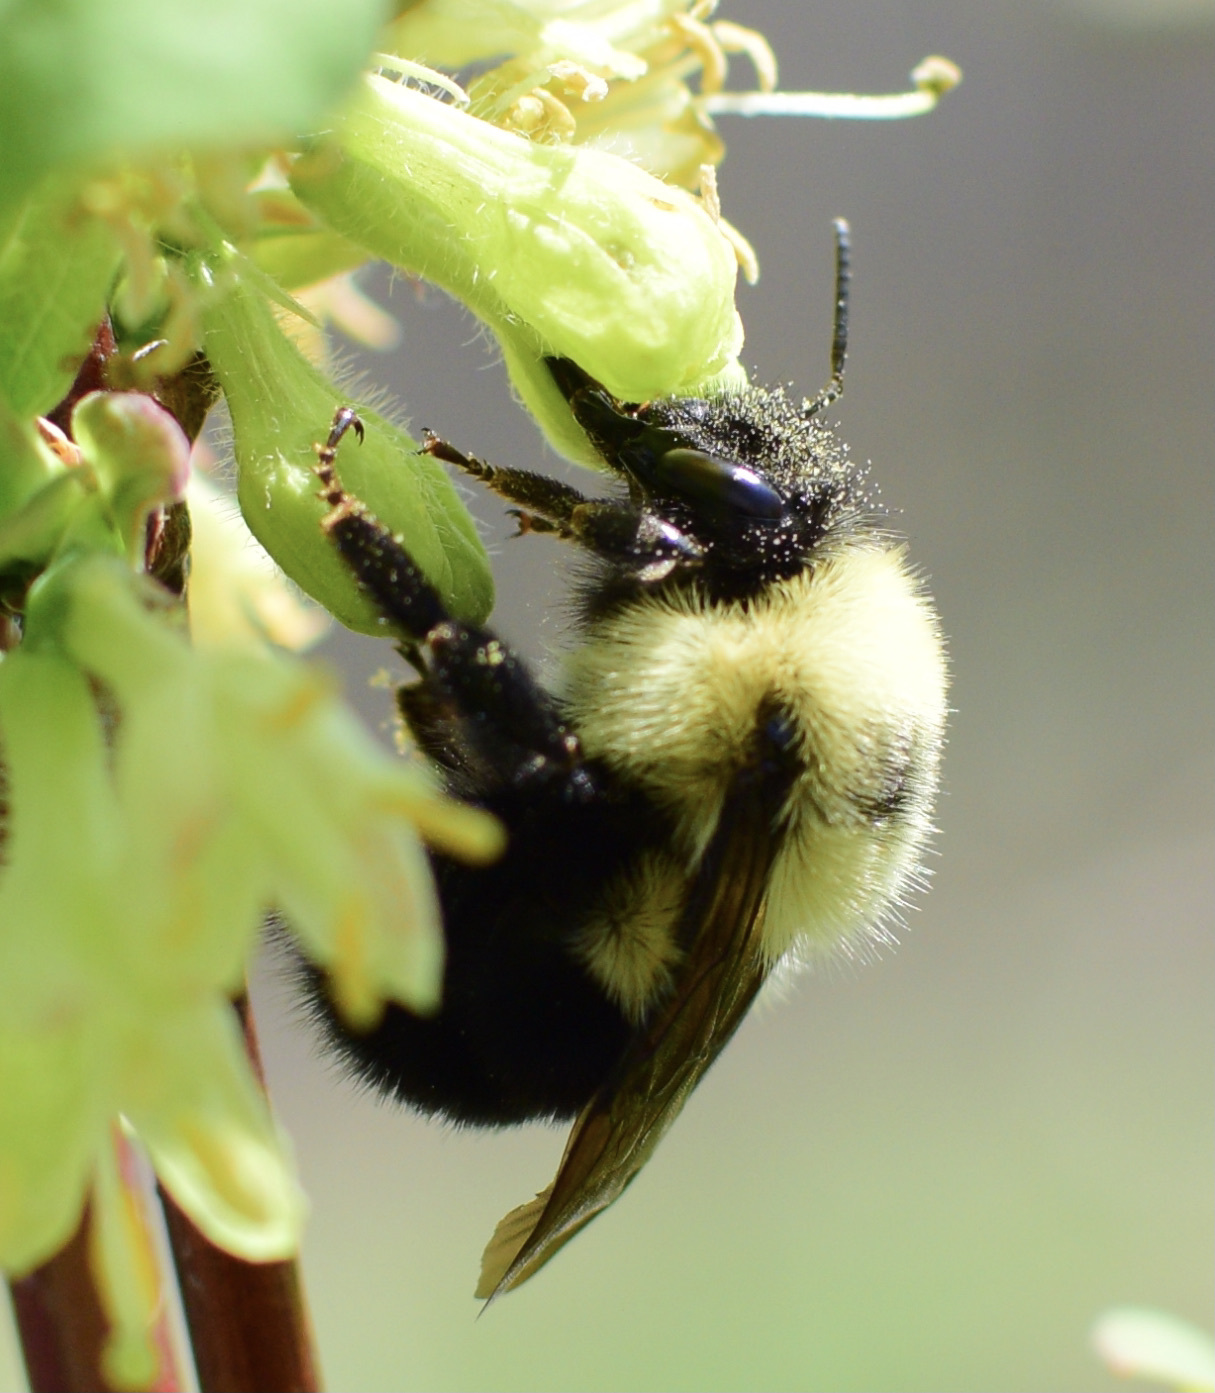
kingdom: Animalia
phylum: Arthropoda
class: Insecta
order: Hymenoptera
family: Apidae
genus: Bombus
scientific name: Bombus bimaculatus
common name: Two-spotted bumble bee
